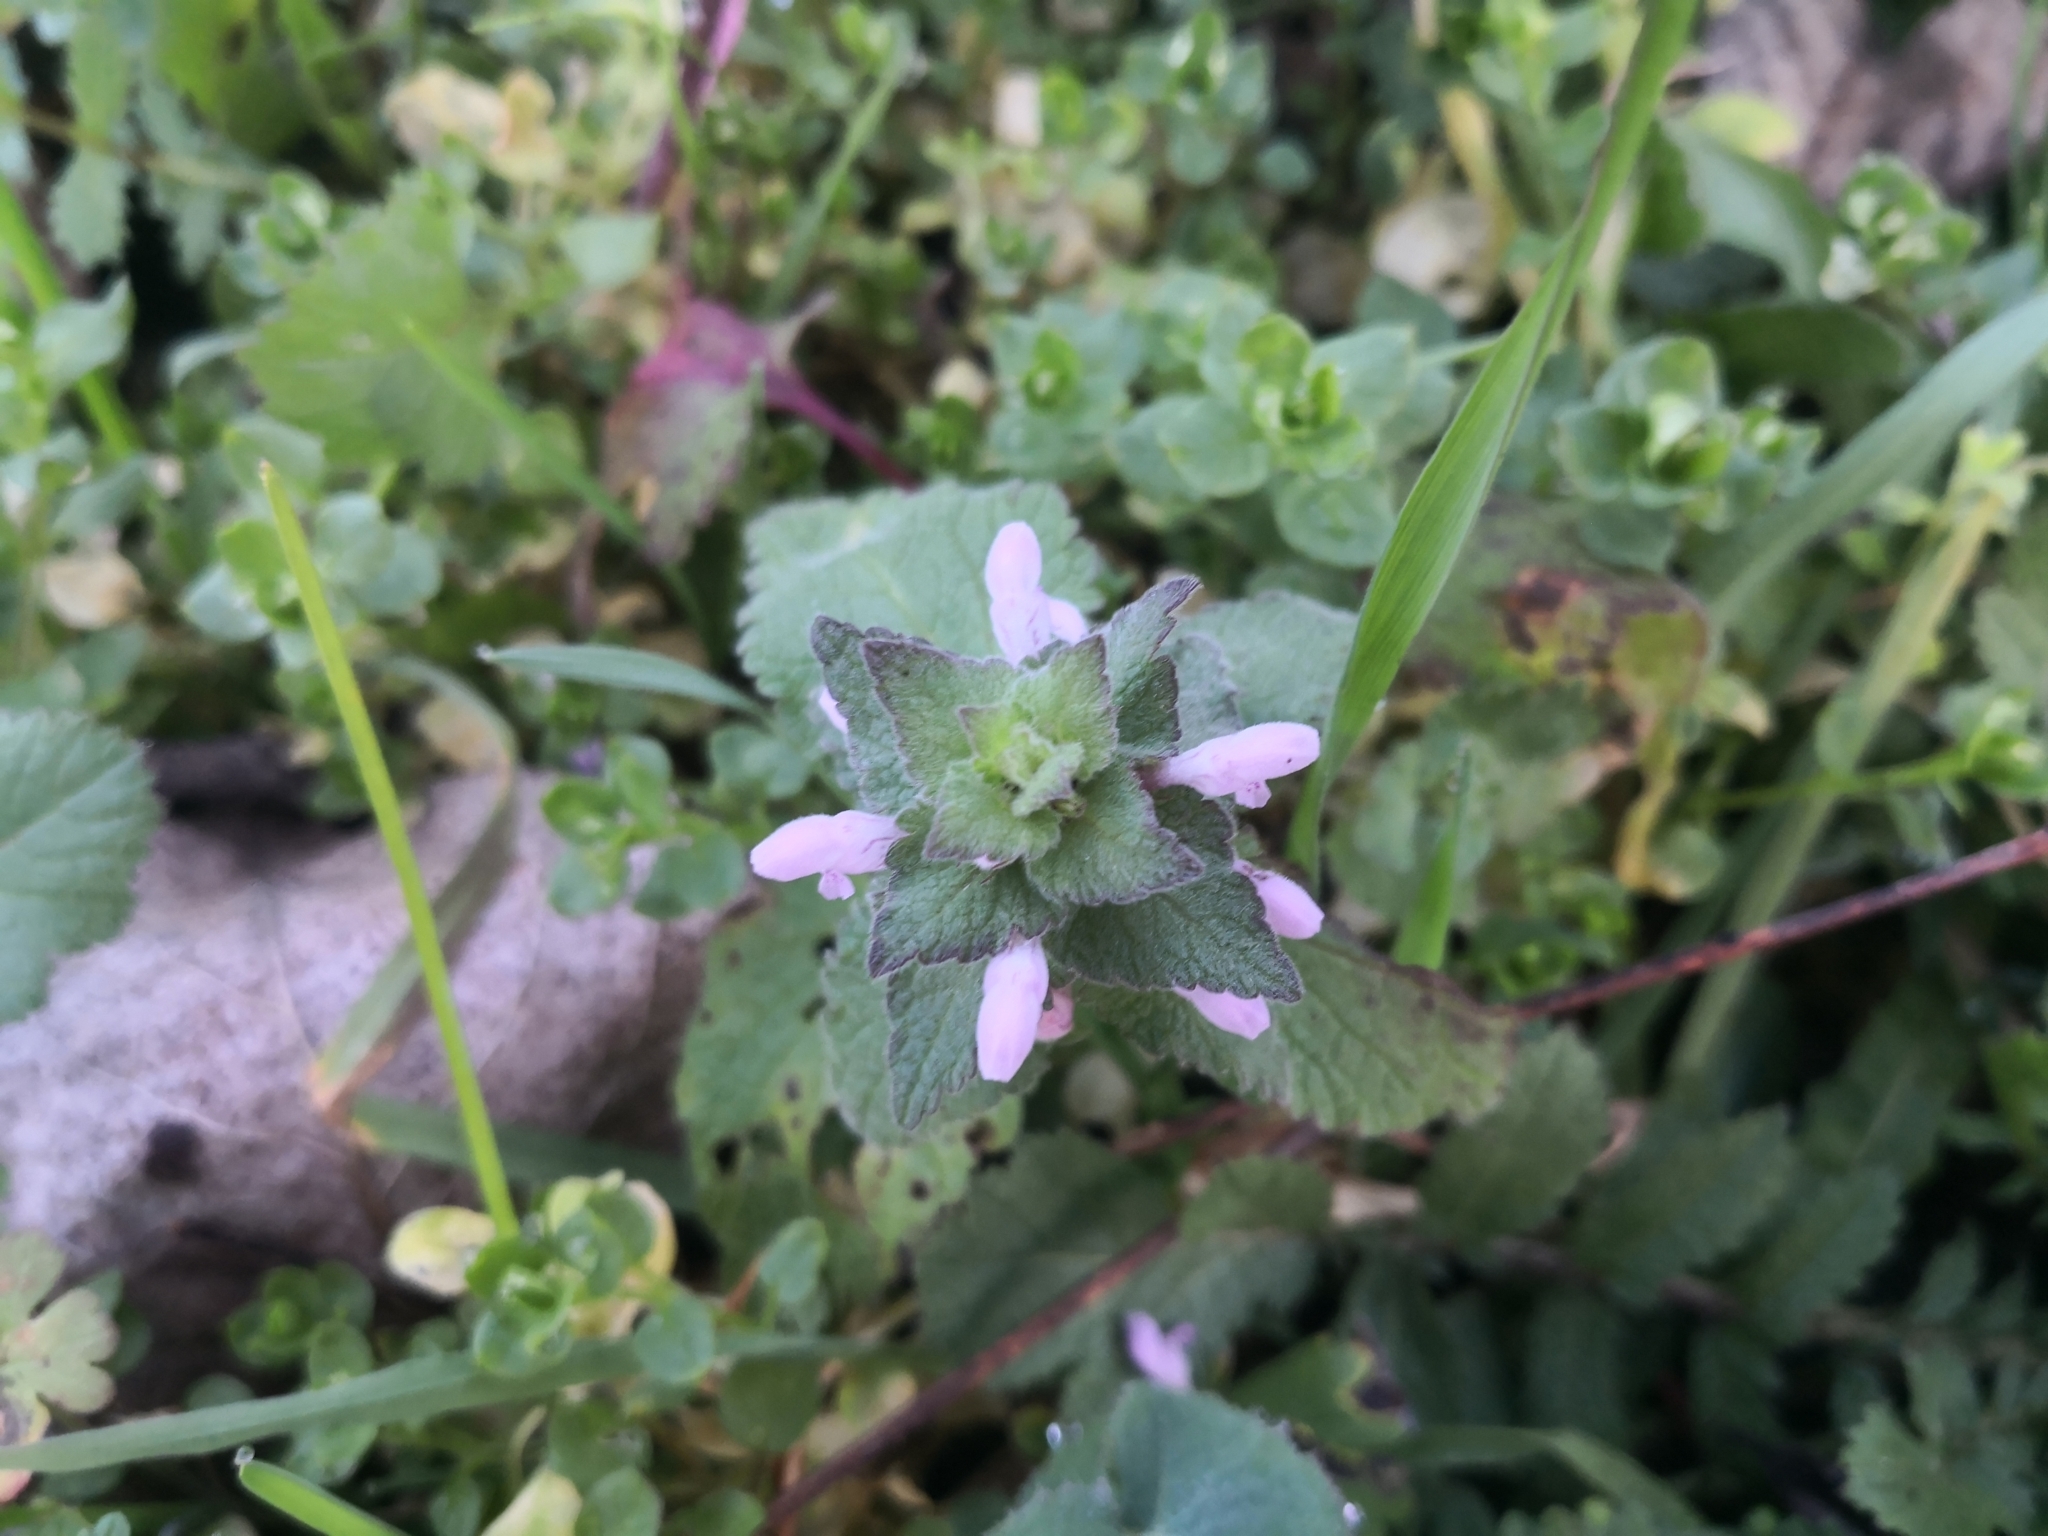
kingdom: Plantae
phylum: Tracheophyta
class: Magnoliopsida
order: Lamiales
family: Lamiaceae
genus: Lamium
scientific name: Lamium purpureum
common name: Red dead-nettle
